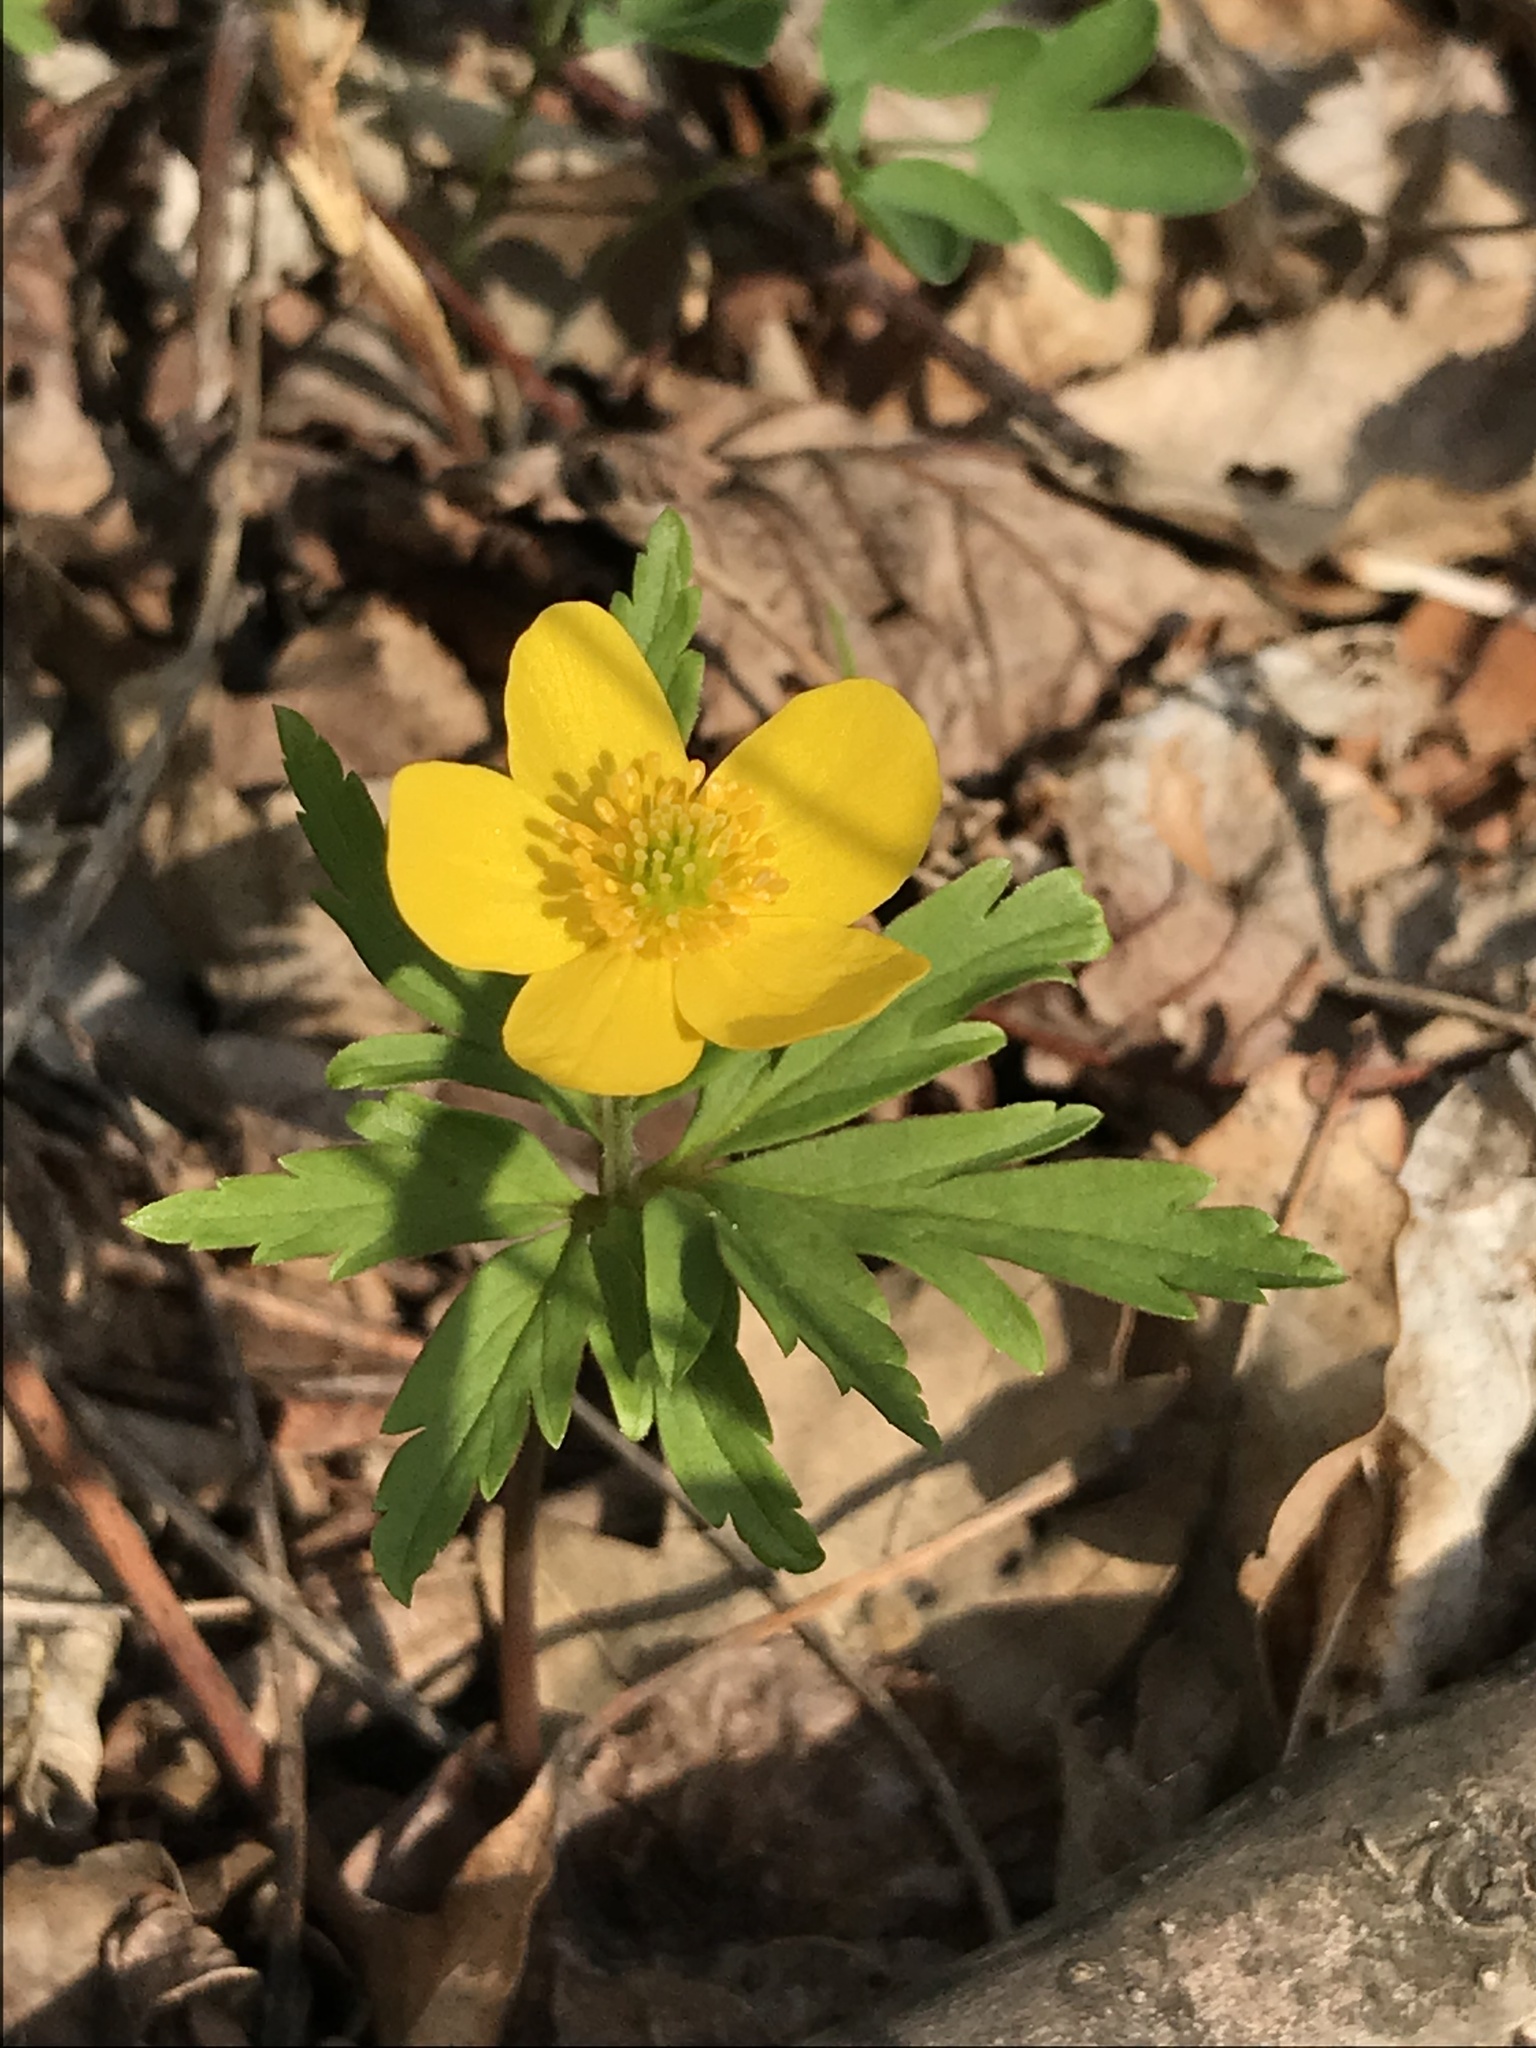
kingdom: Plantae
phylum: Tracheophyta
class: Magnoliopsida
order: Ranunculales
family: Ranunculaceae
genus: Anemone
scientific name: Anemone ranunculoides
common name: Yellow anemone
